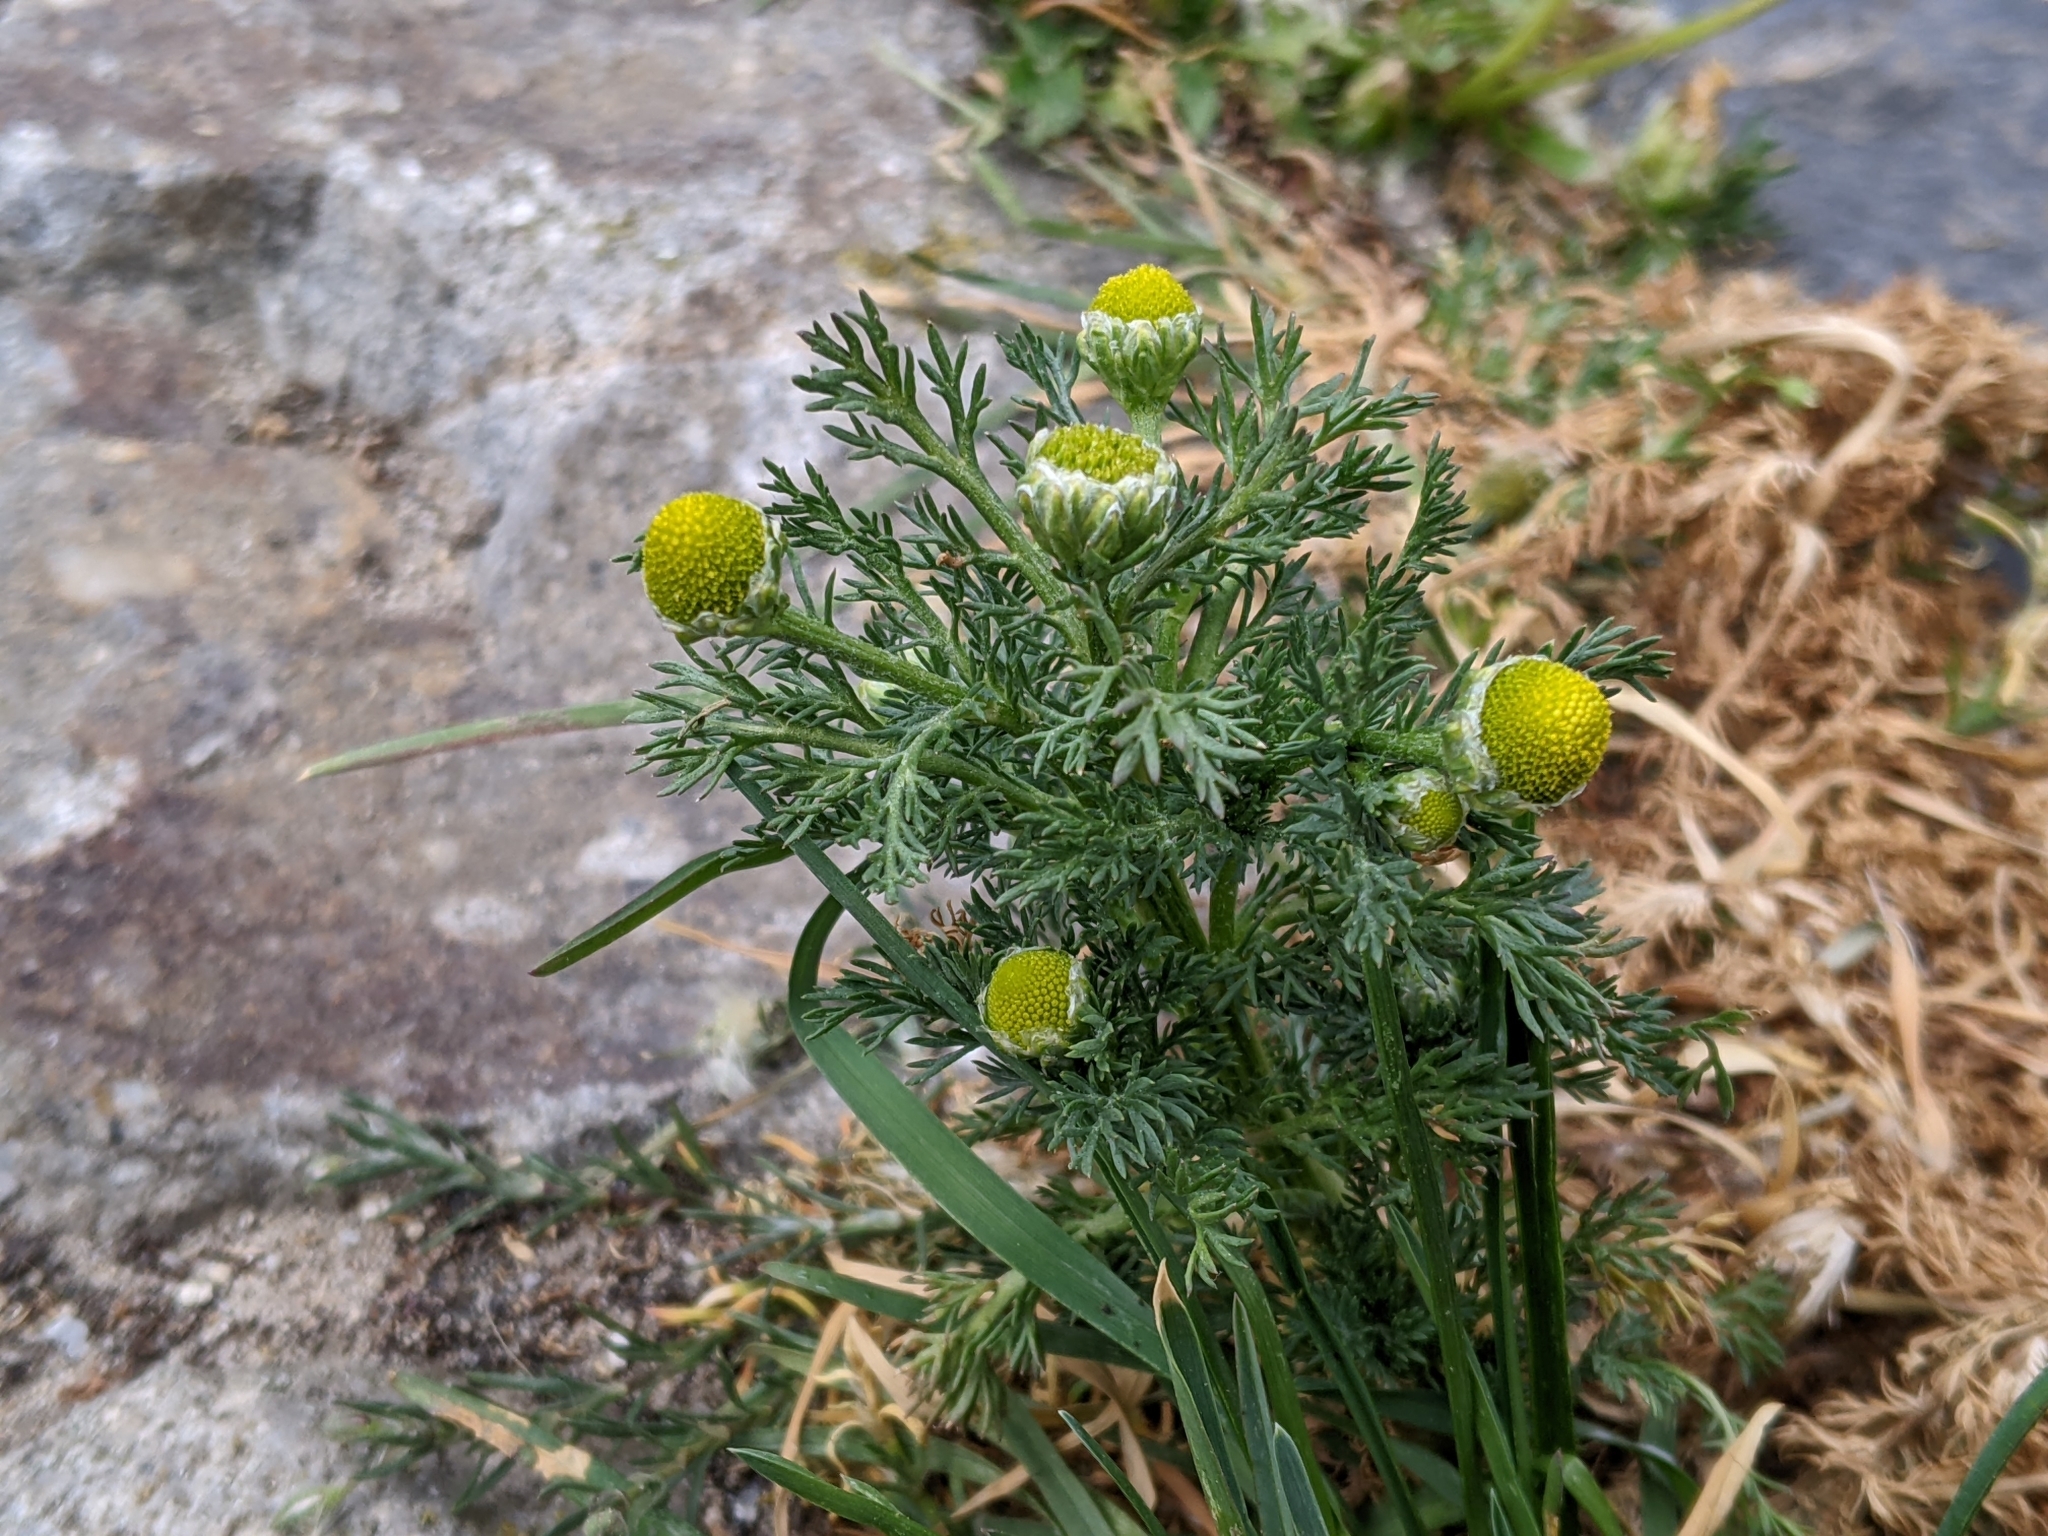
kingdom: Plantae
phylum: Tracheophyta
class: Magnoliopsida
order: Asterales
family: Asteraceae
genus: Matricaria
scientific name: Matricaria discoidea
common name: Disc mayweed
